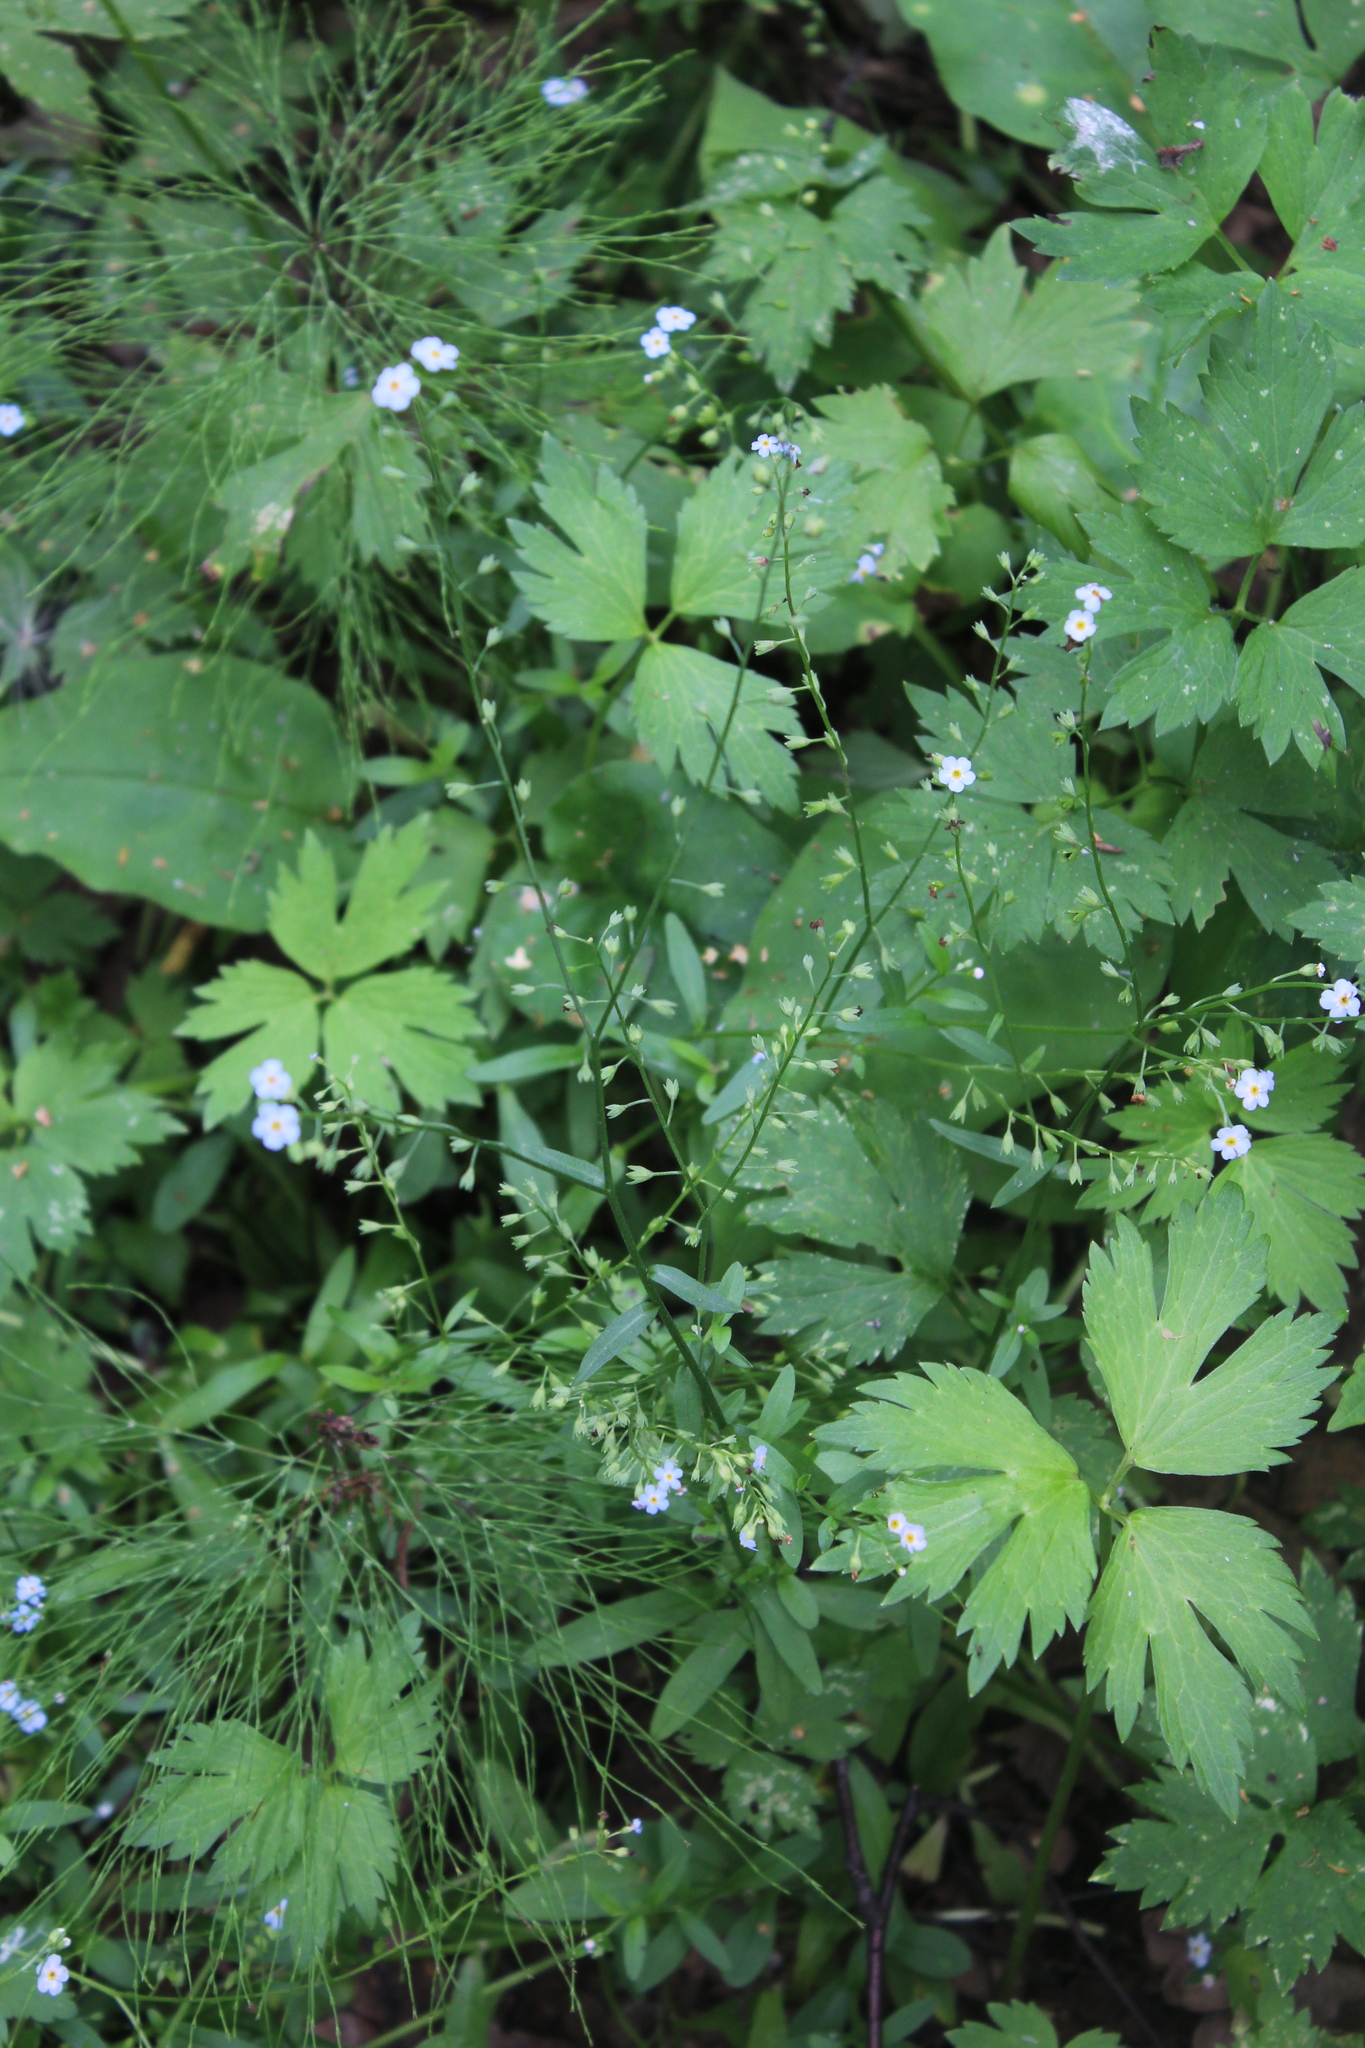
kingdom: Plantae
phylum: Tracheophyta
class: Magnoliopsida
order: Boraginales
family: Boraginaceae
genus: Myosotis
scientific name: Myosotis scorpioides
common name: Water forget-me-not
